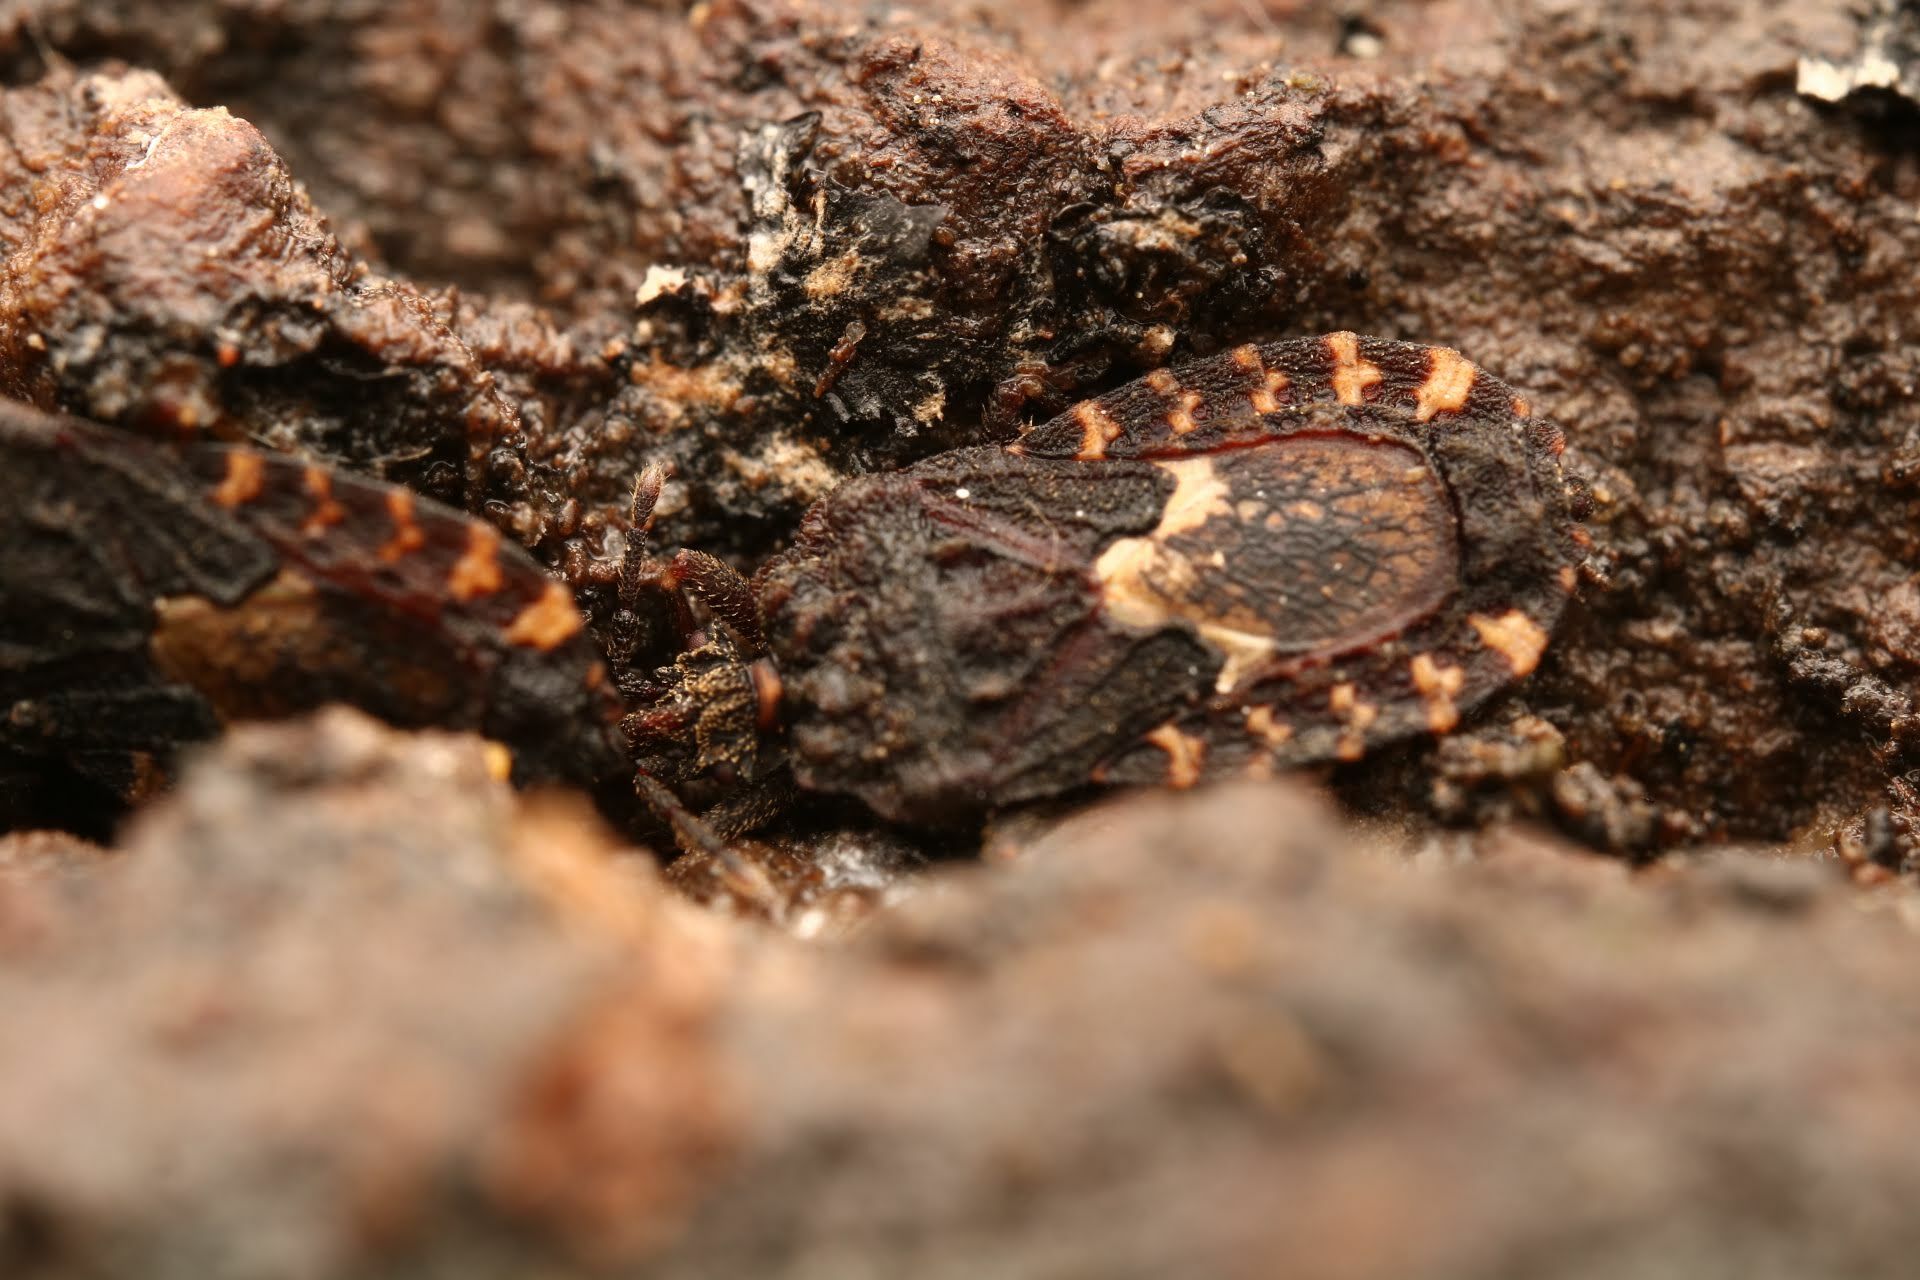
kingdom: Animalia
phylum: Arthropoda
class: Insecta
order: Hemiptera
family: Aradidae
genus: Mezira
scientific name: Mezira
